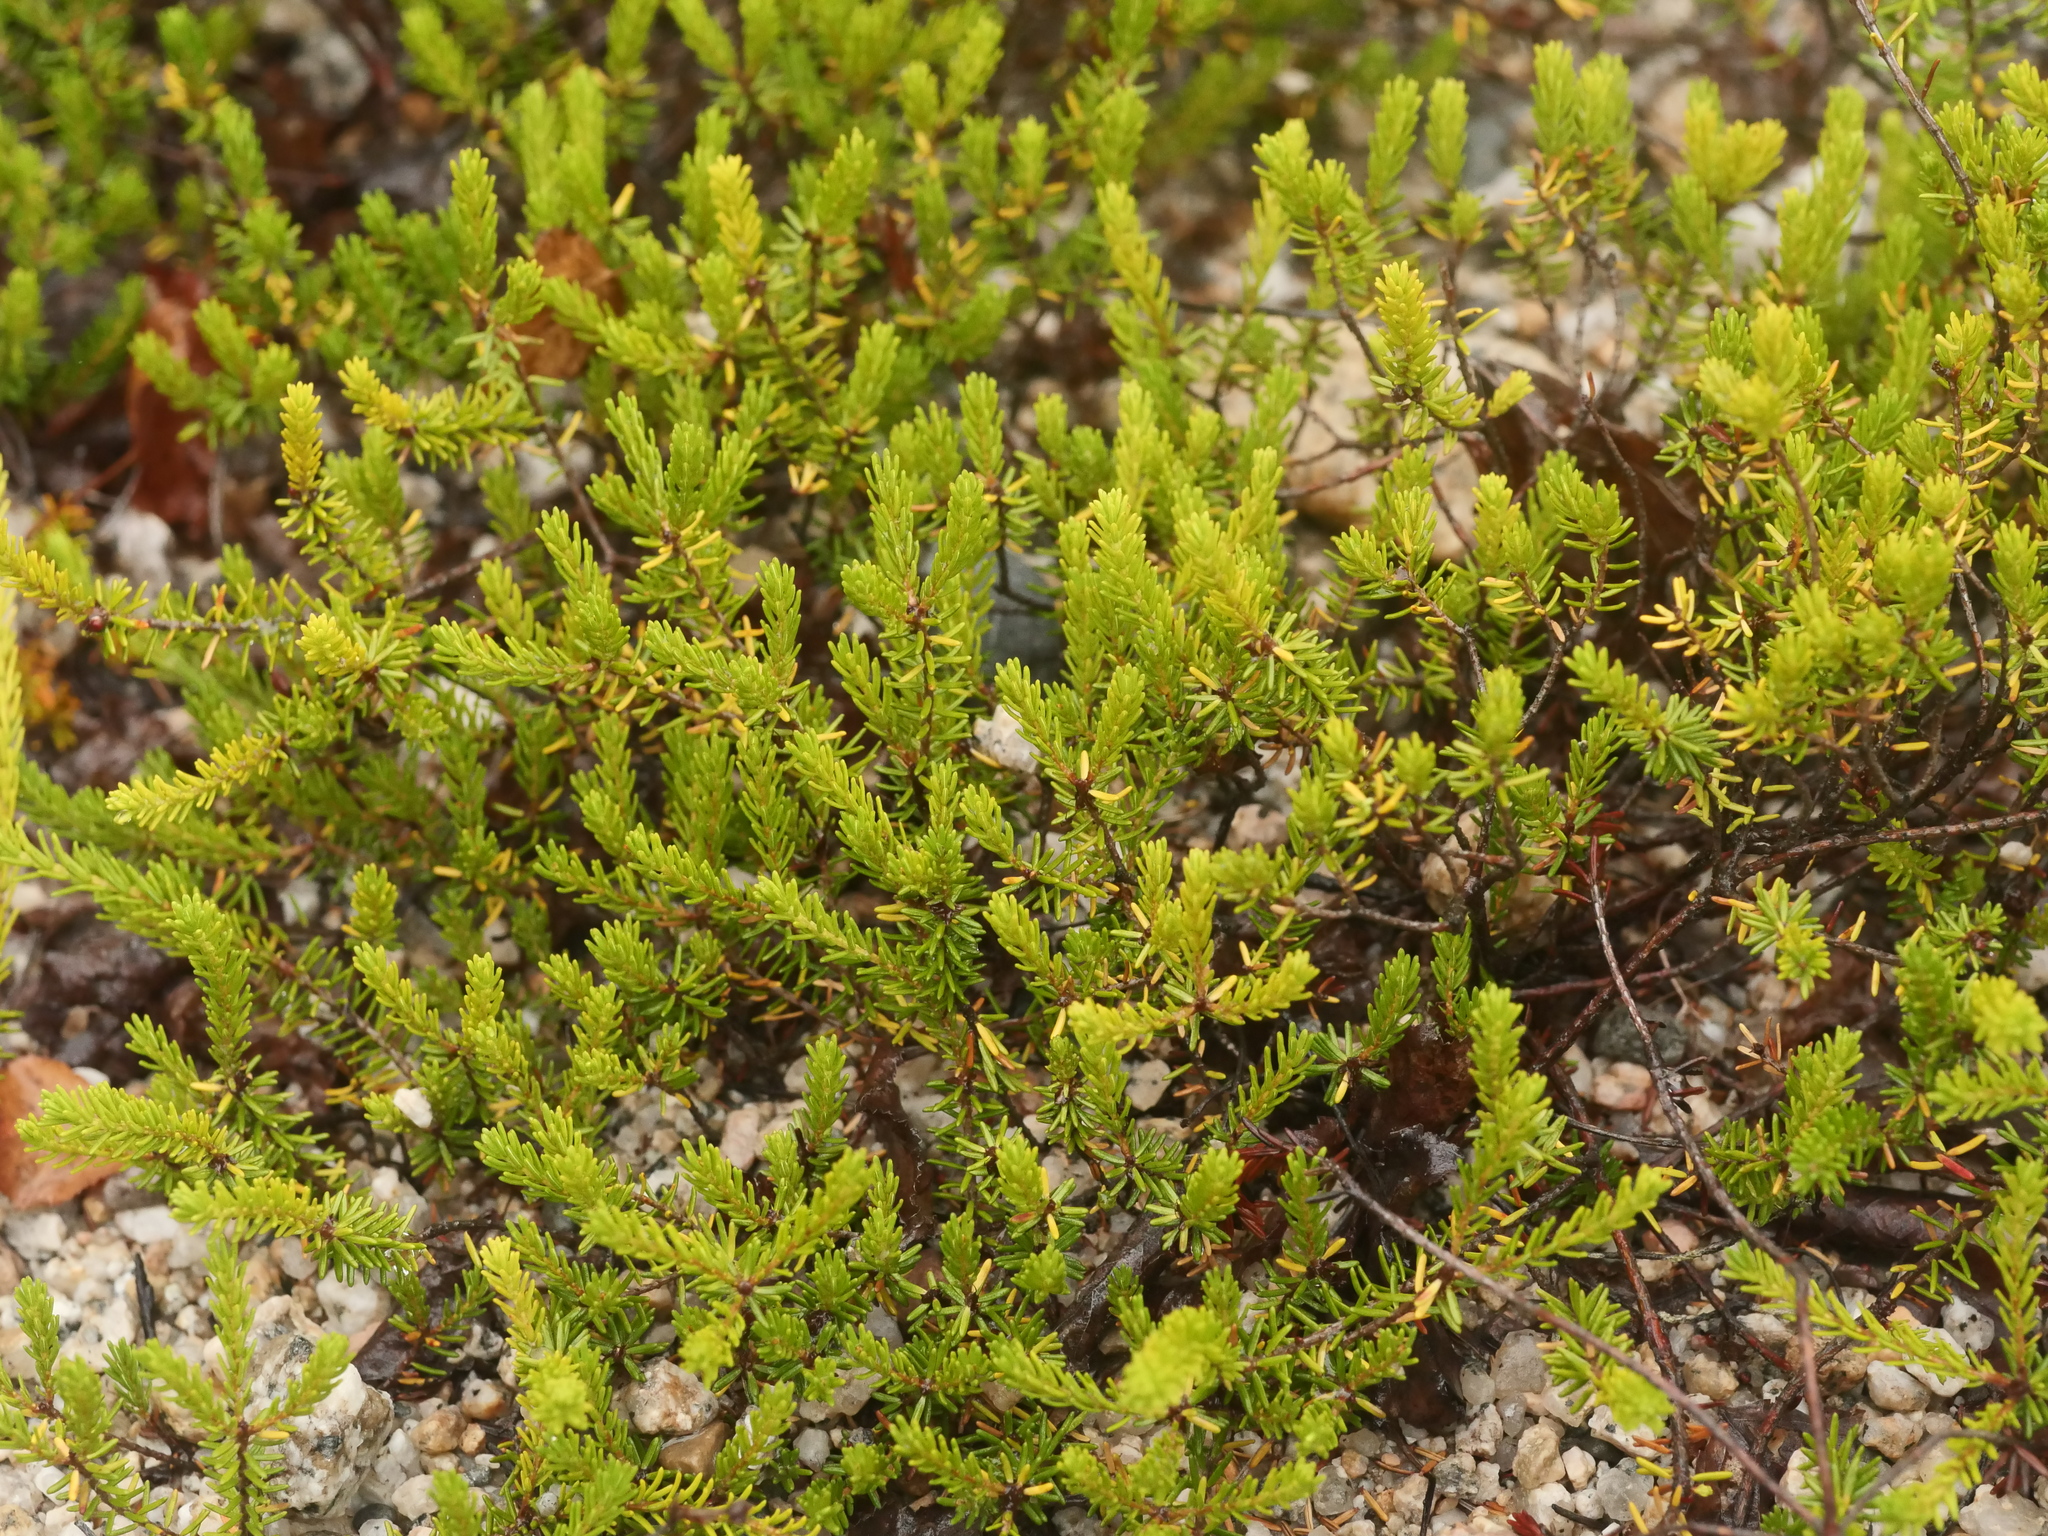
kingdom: Plantae
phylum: Tracheophyta
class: Magnoliopsida
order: Ericales
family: Ericaceae
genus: Corema
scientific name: Corema conradii
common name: Broom-crowberry
